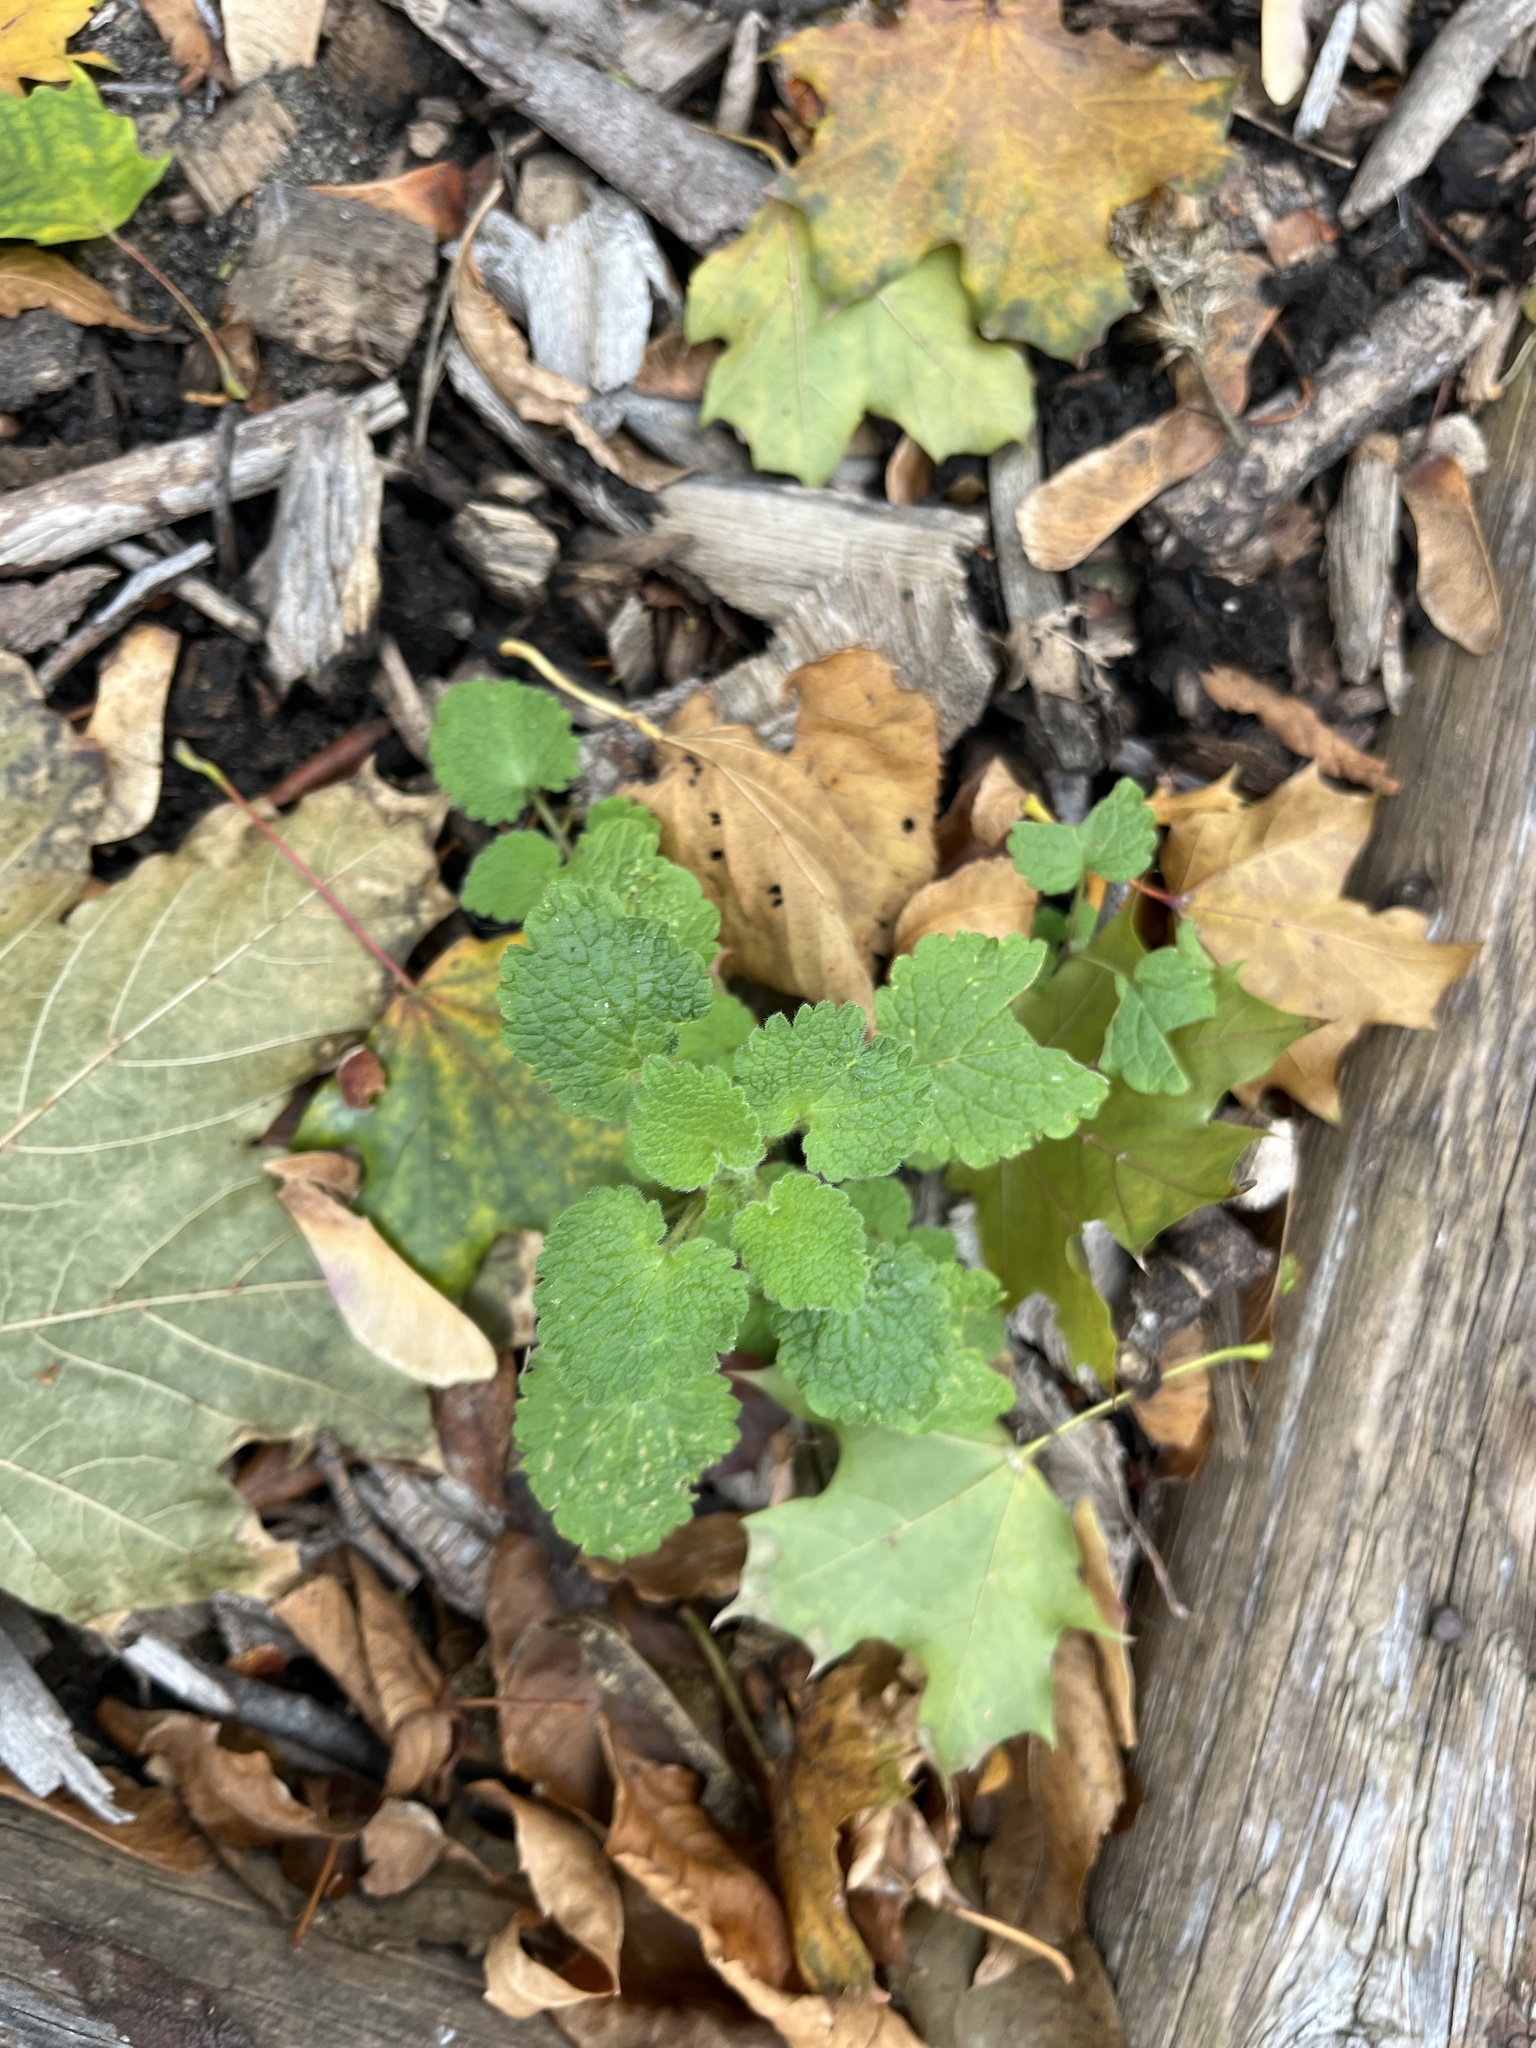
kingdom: Plantae
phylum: Tracheophyta
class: Magnoliopsida
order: Lamiales
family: Lamiaceae
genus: Lamium
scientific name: Lamium purpureum
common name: Red dead-nettle
